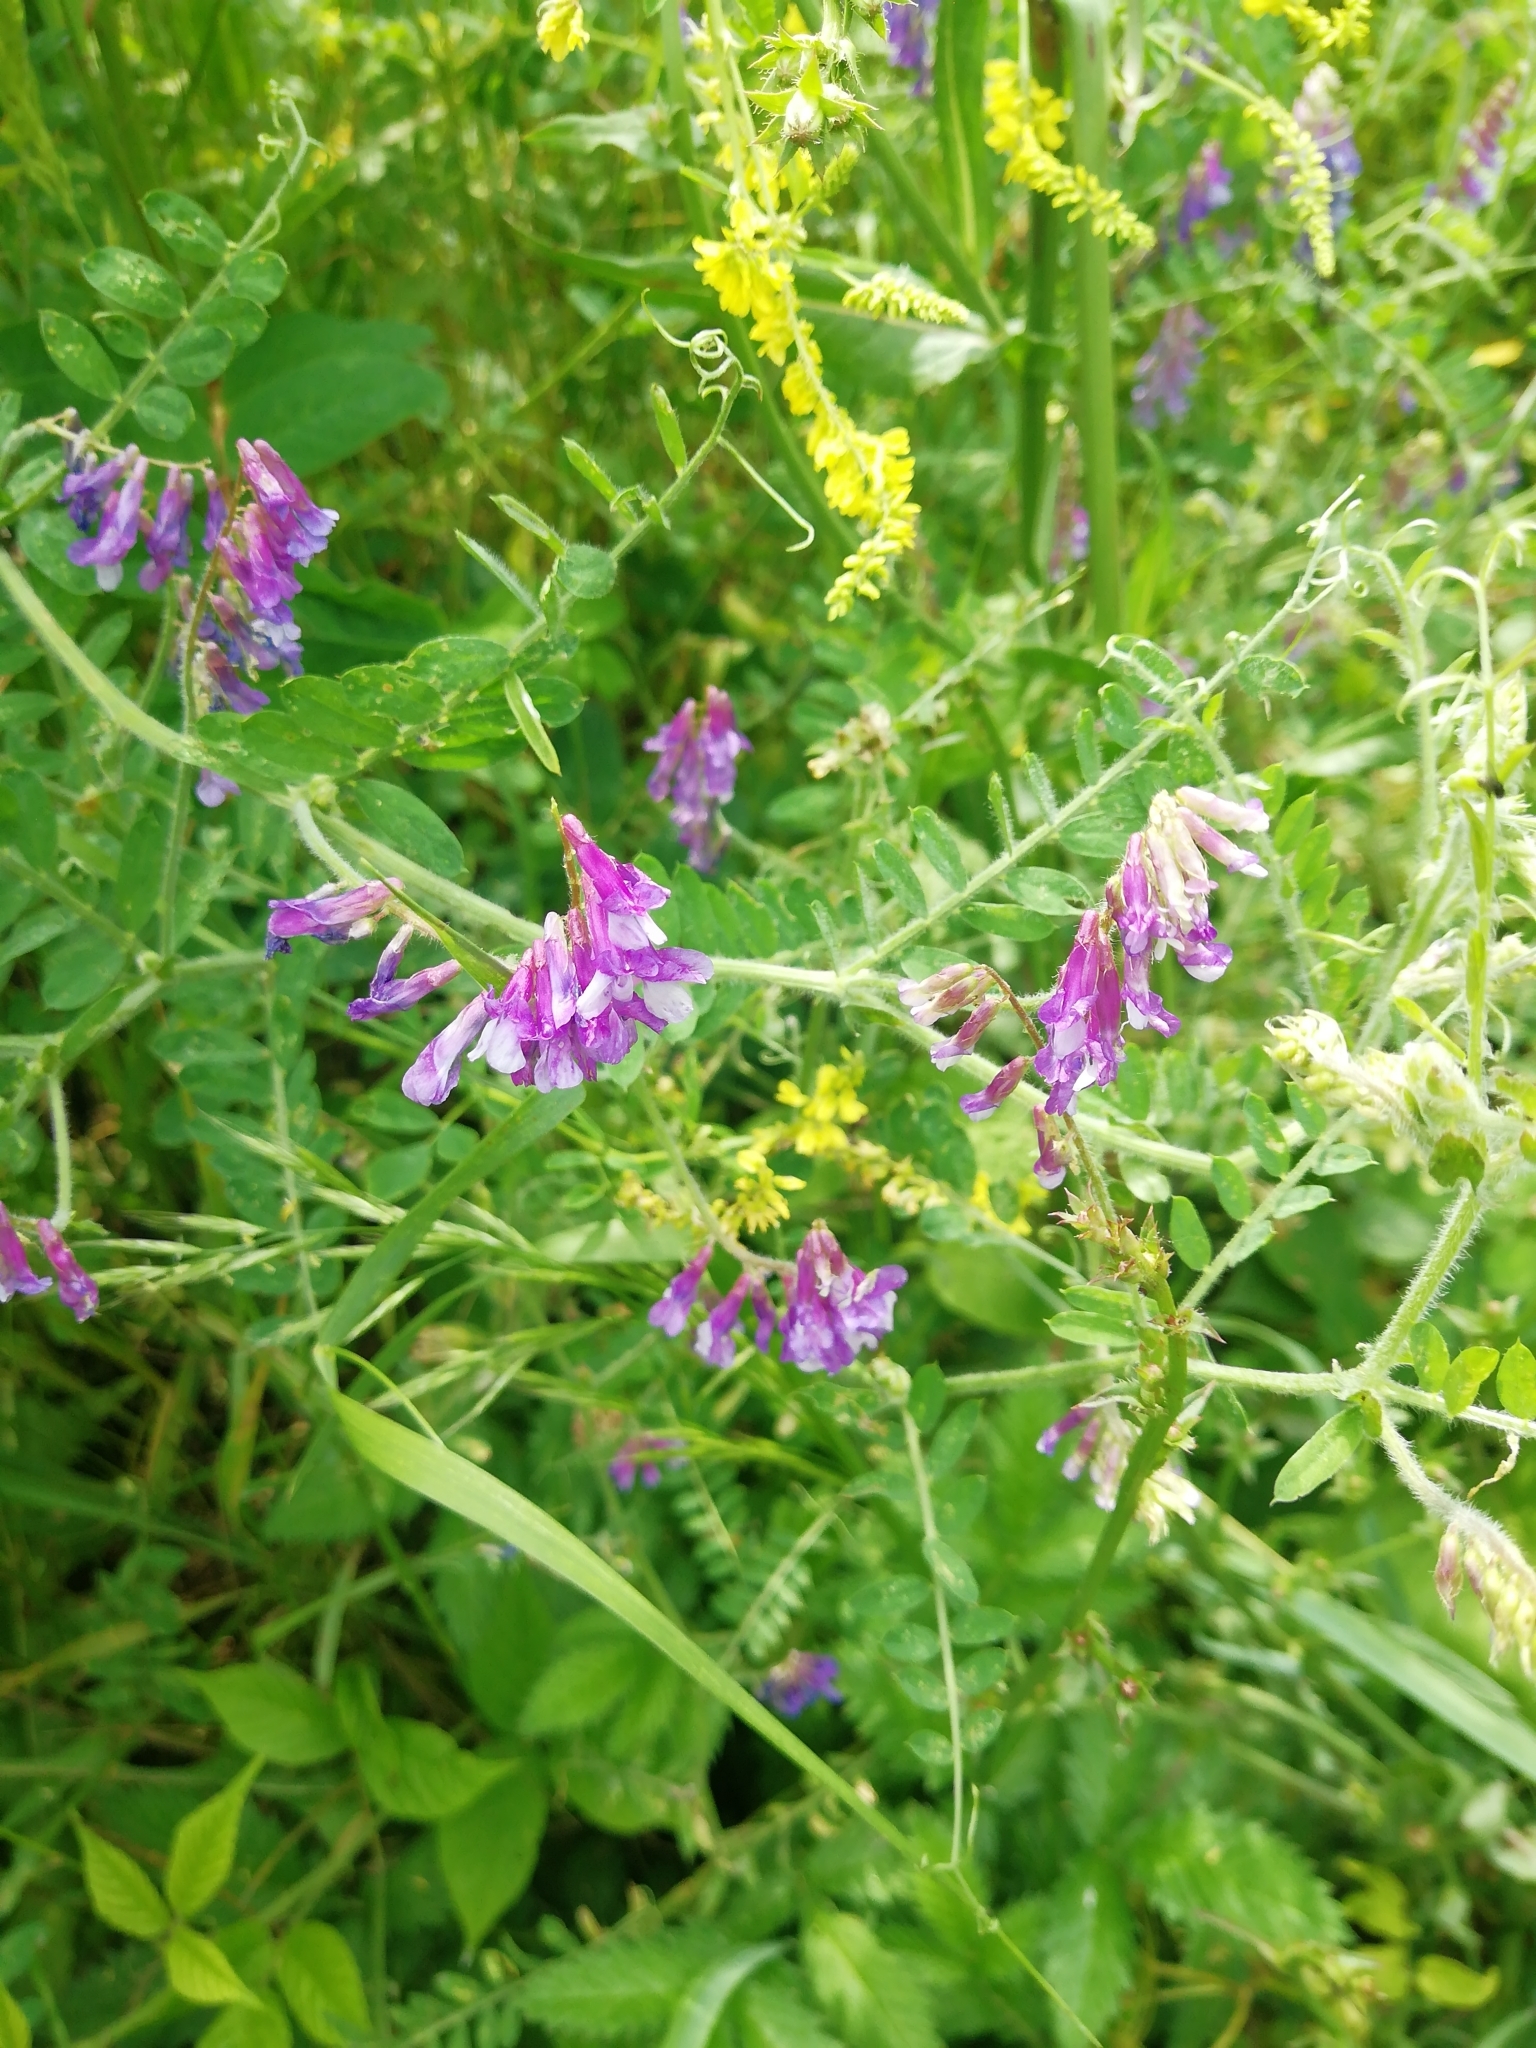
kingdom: Plantae
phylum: Tracheophyta
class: Magnoliopsida
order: Fabales
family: Fabaceae
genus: Vicia
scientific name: Vicia villosa
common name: Fodder vetch
